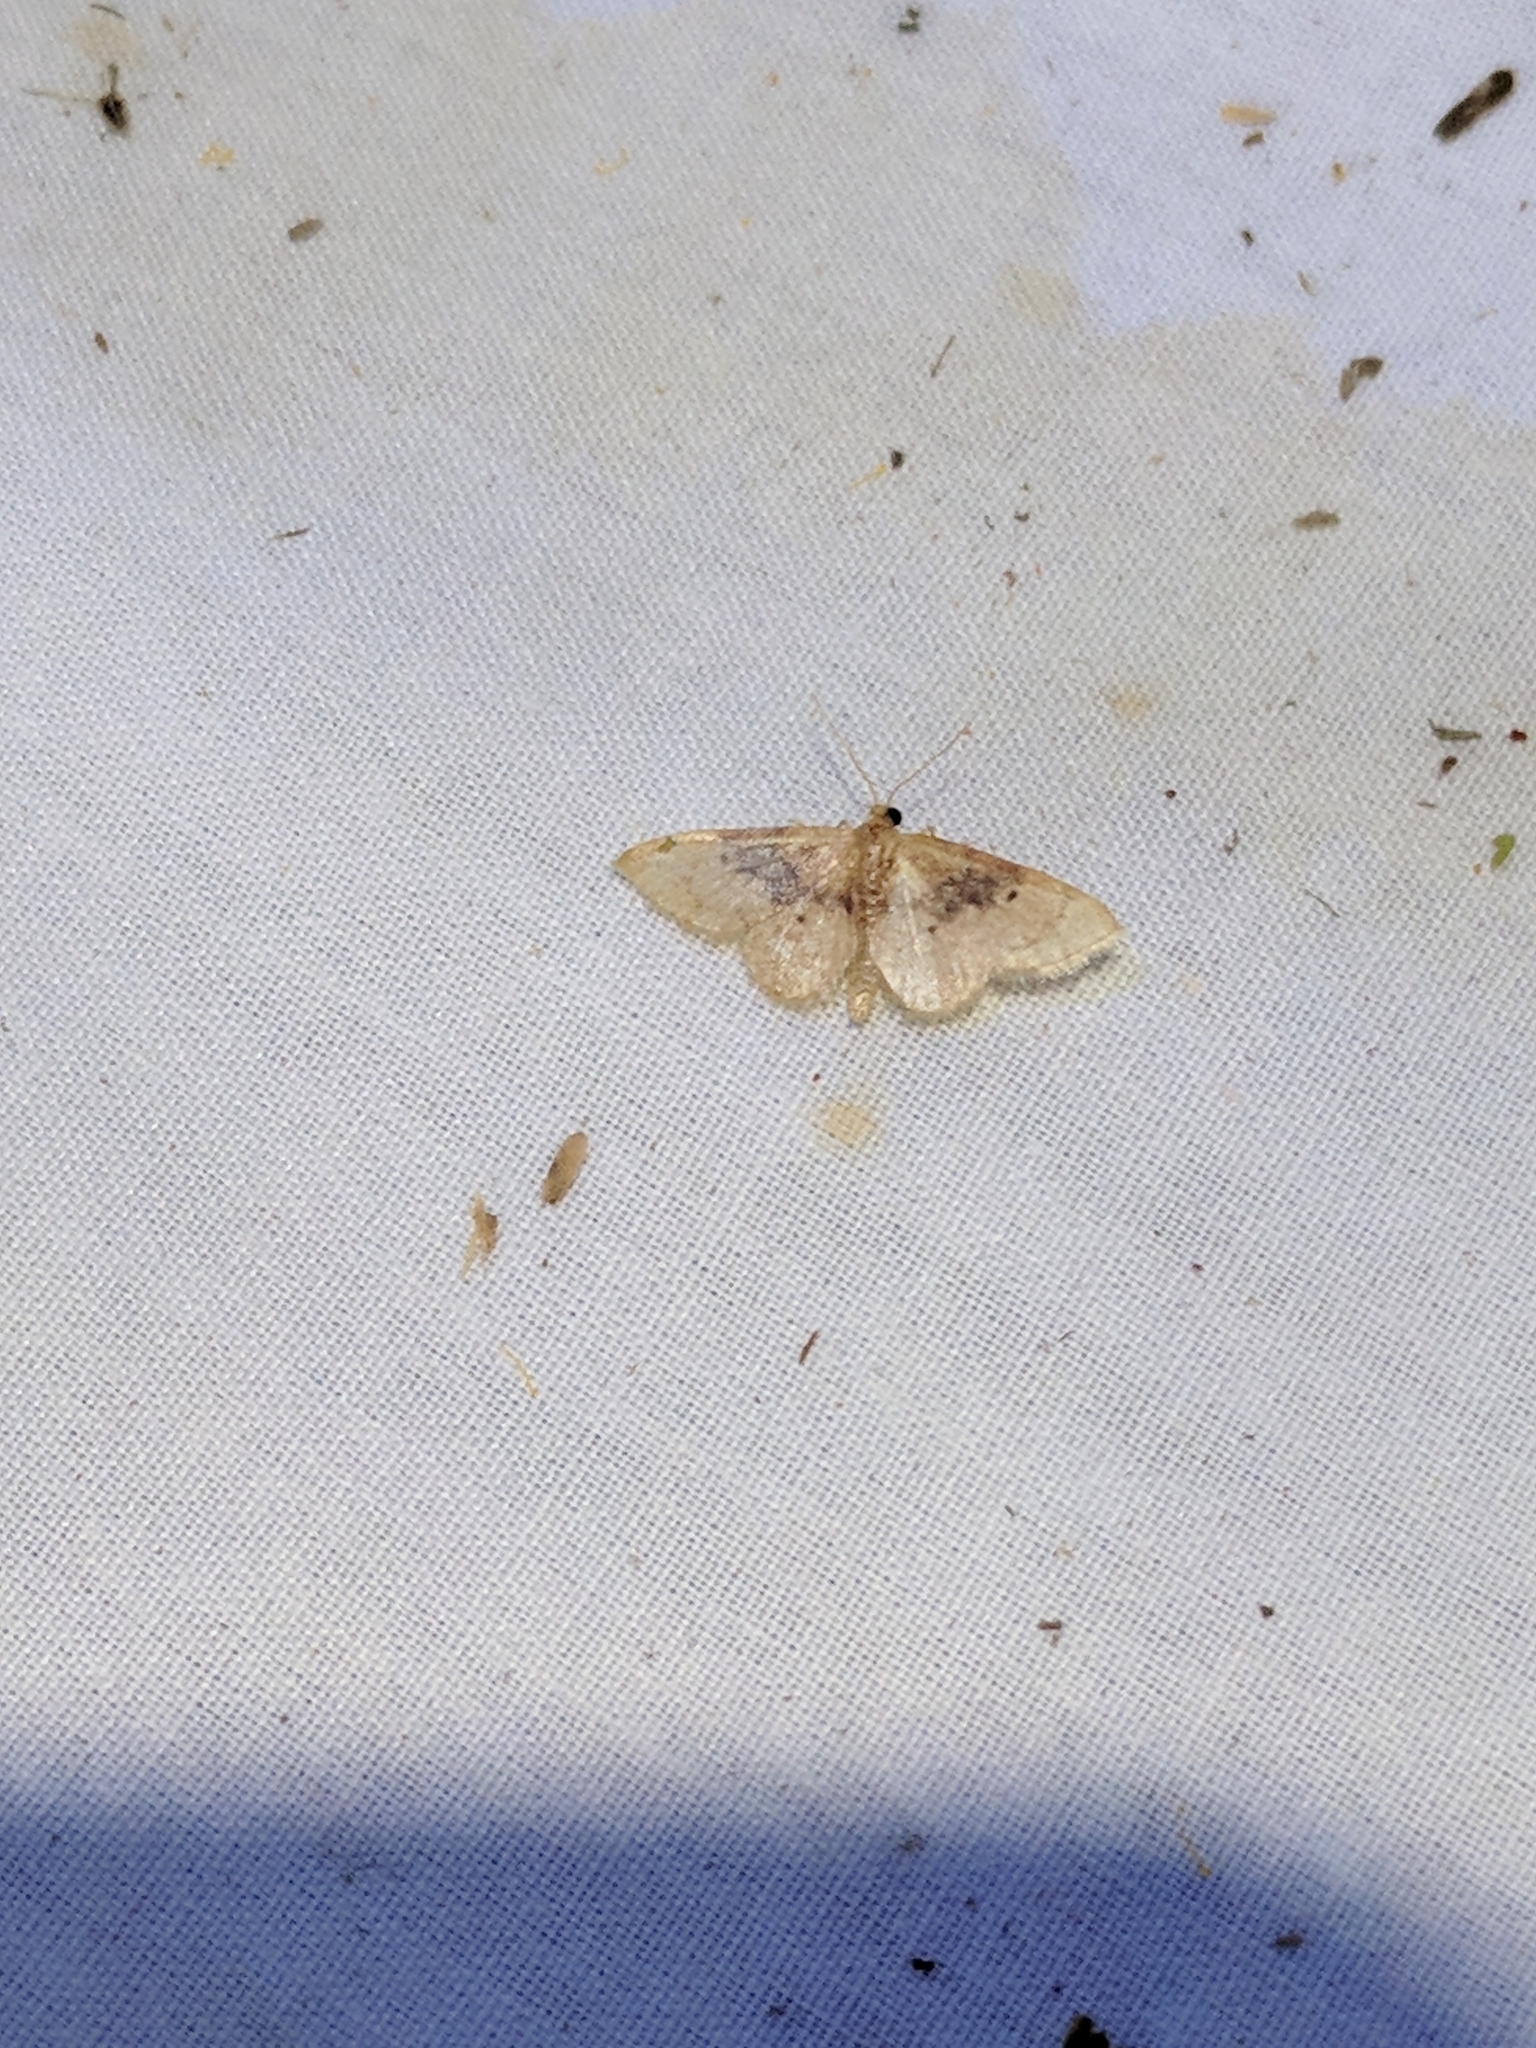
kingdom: Animalia
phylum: Arthropoda
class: Insecta
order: Lepidoptera
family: Geometridae
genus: Idaea
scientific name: Idaea gemmata
